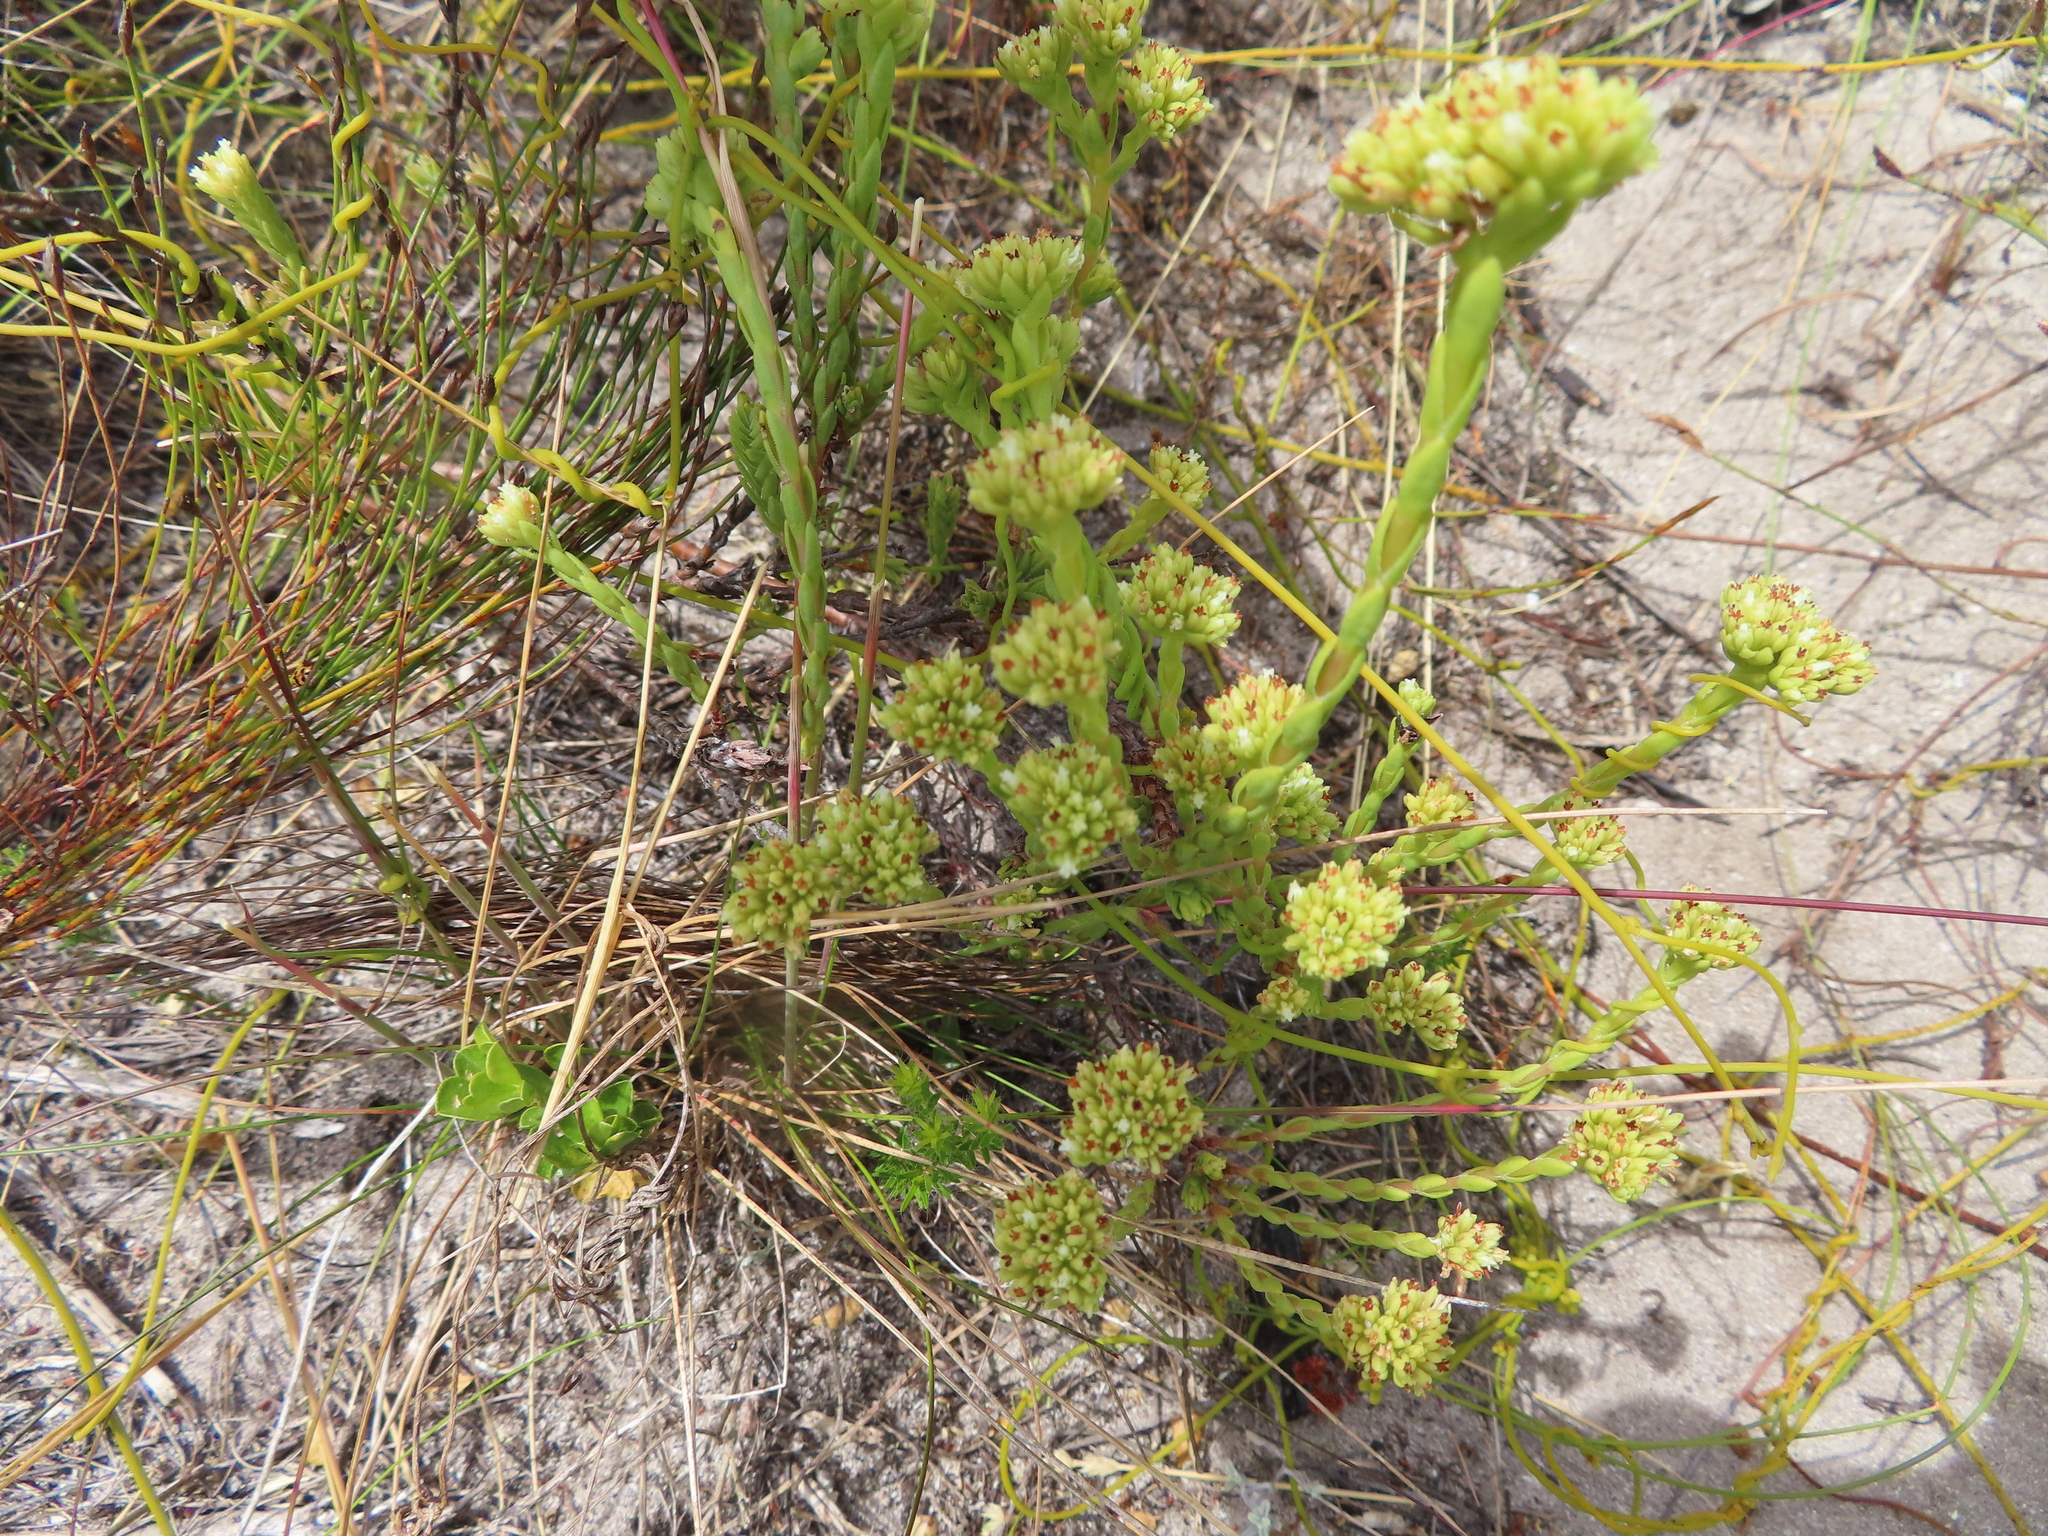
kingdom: Plantae
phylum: Tracheophyta
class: Magnoliopsida
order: Saxifragales
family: Crassulaceae
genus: Crassula
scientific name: Crassula subulata
